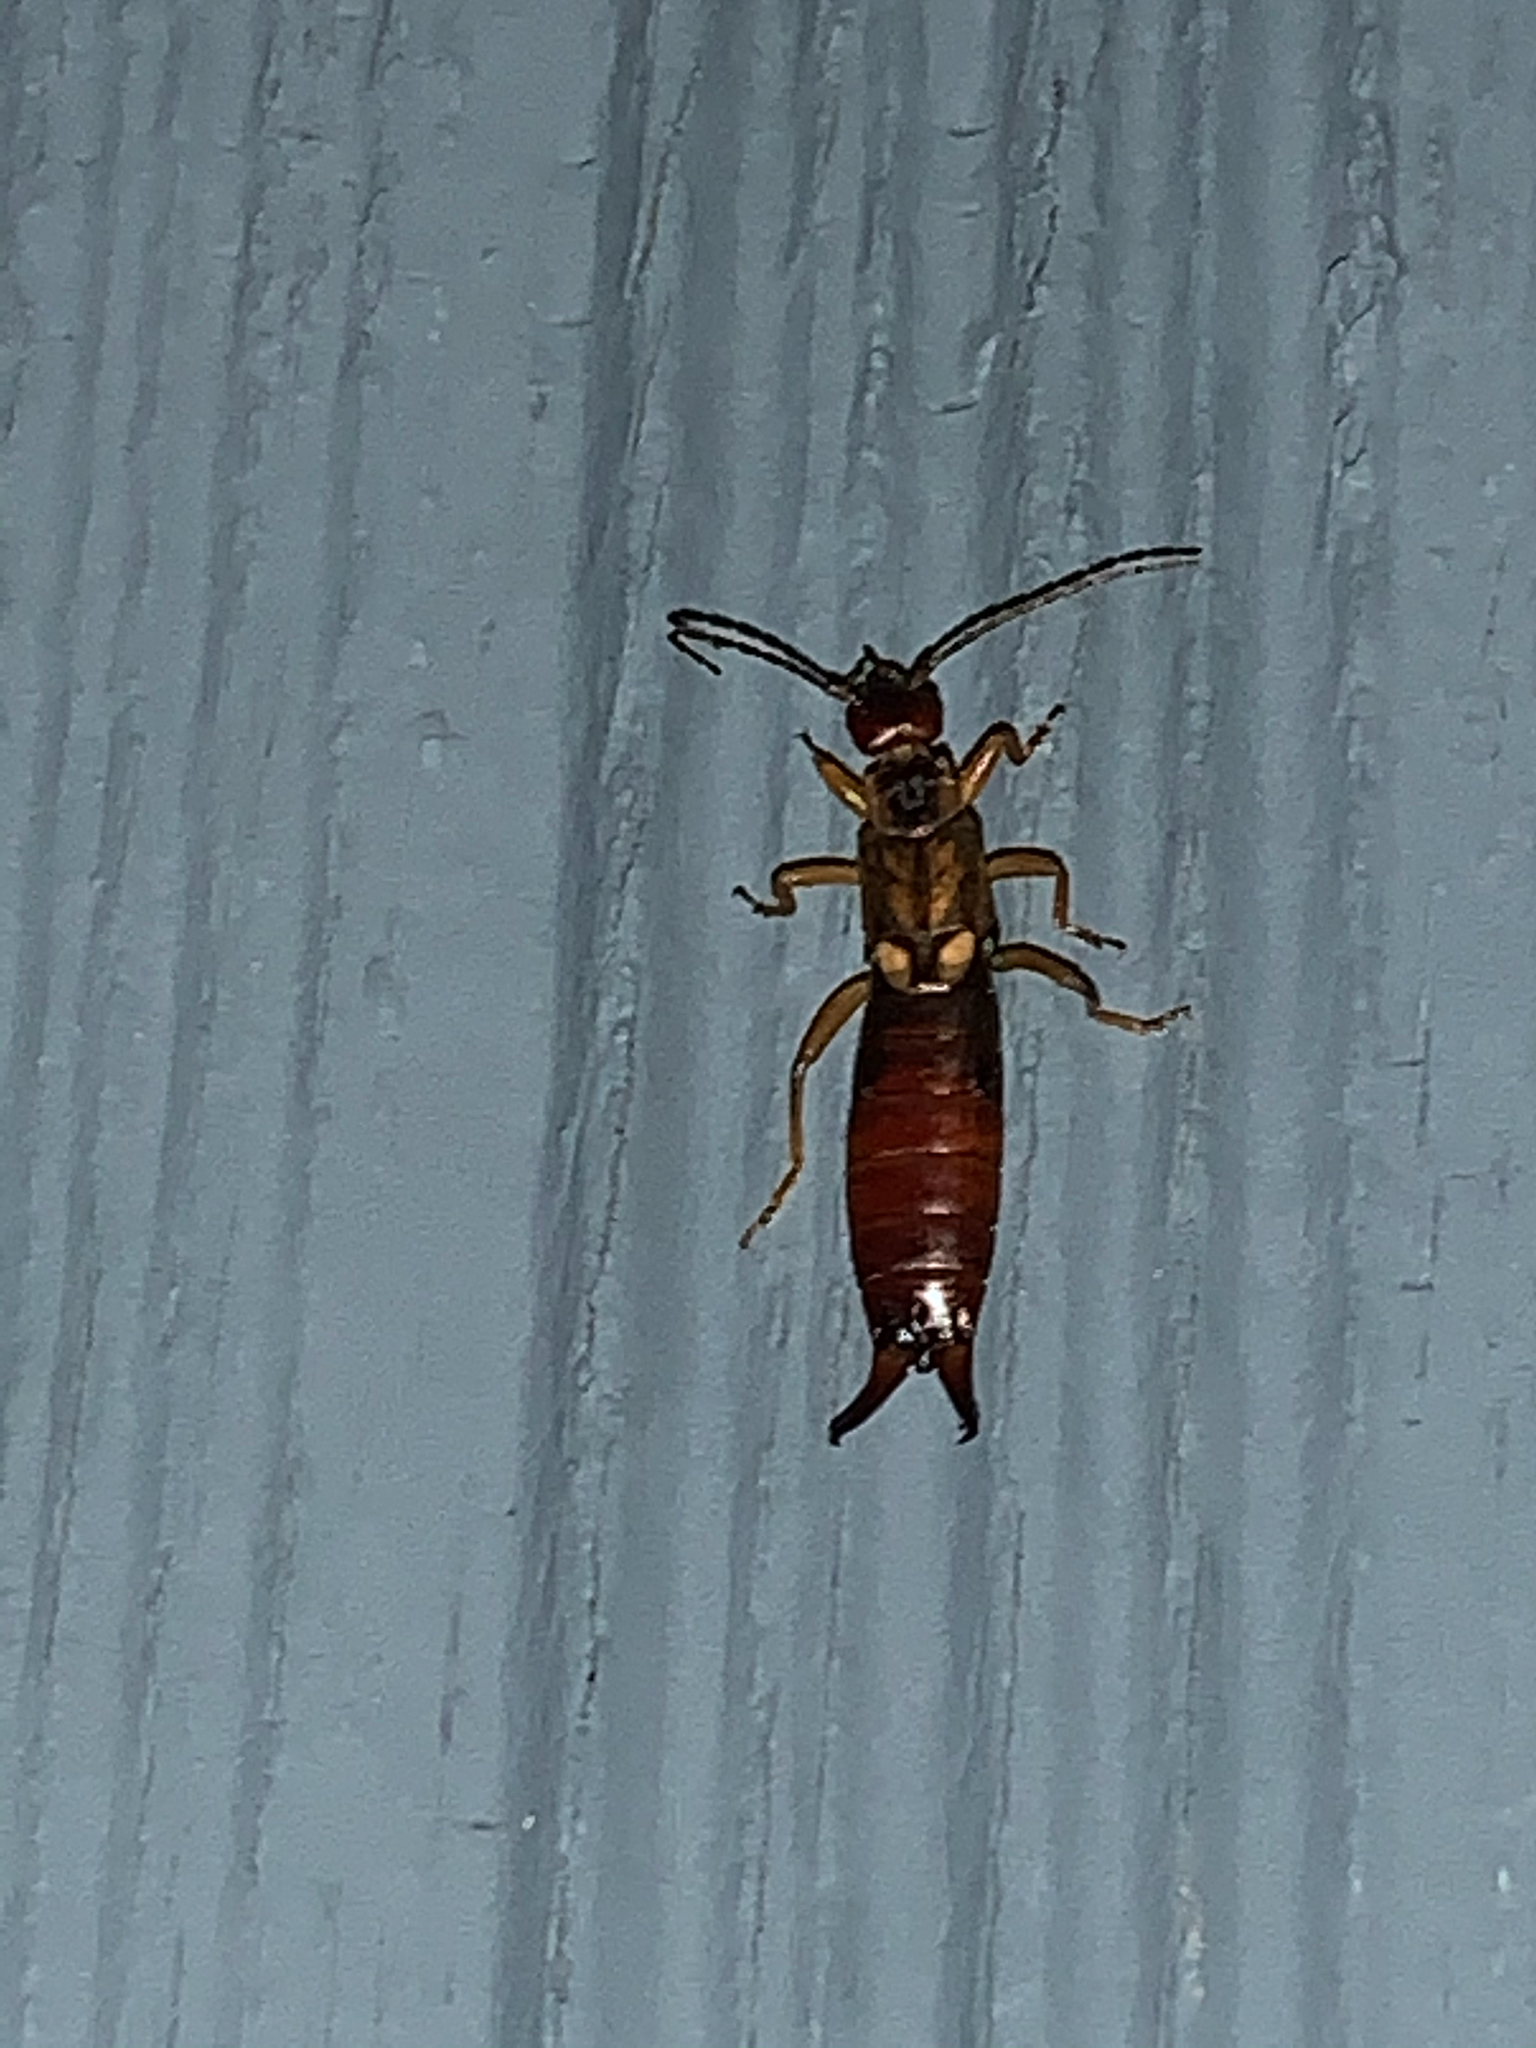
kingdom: Animalia
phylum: Arthropoda
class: Insecta
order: Dermaptera
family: Forficulidae
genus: Forficula
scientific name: Forficula
